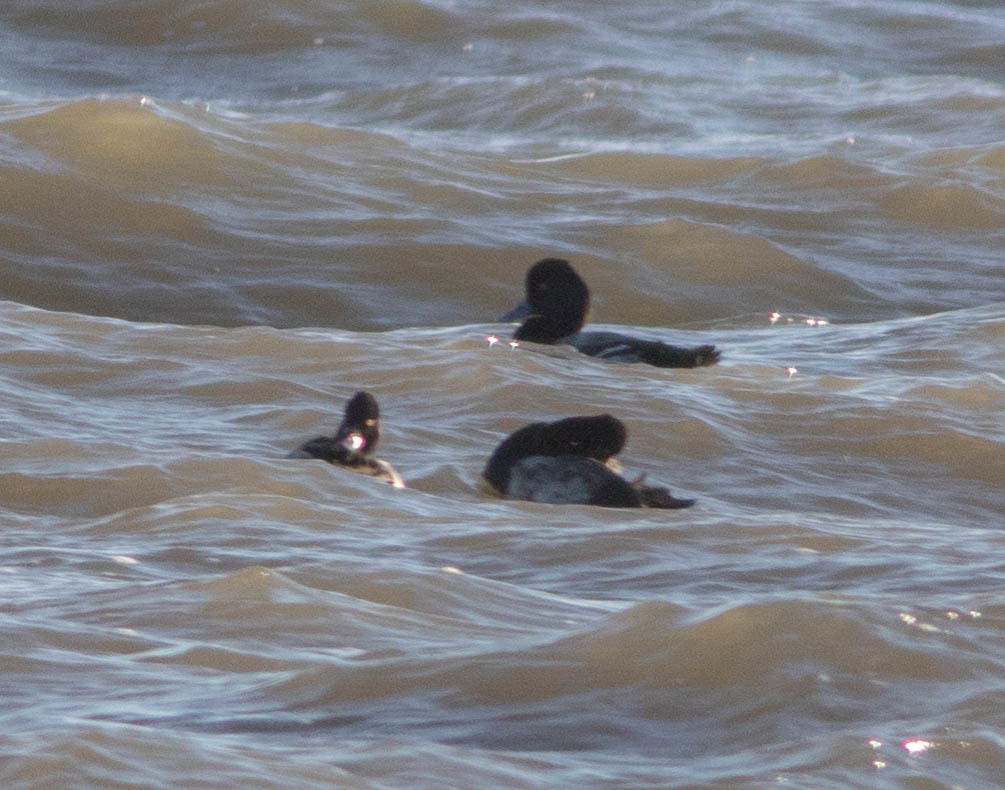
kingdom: Animalia
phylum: Chordata
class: Aves
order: Anseriformes
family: Anatidae
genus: Aythya
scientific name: Aythya affinis
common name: Lesser scaup
